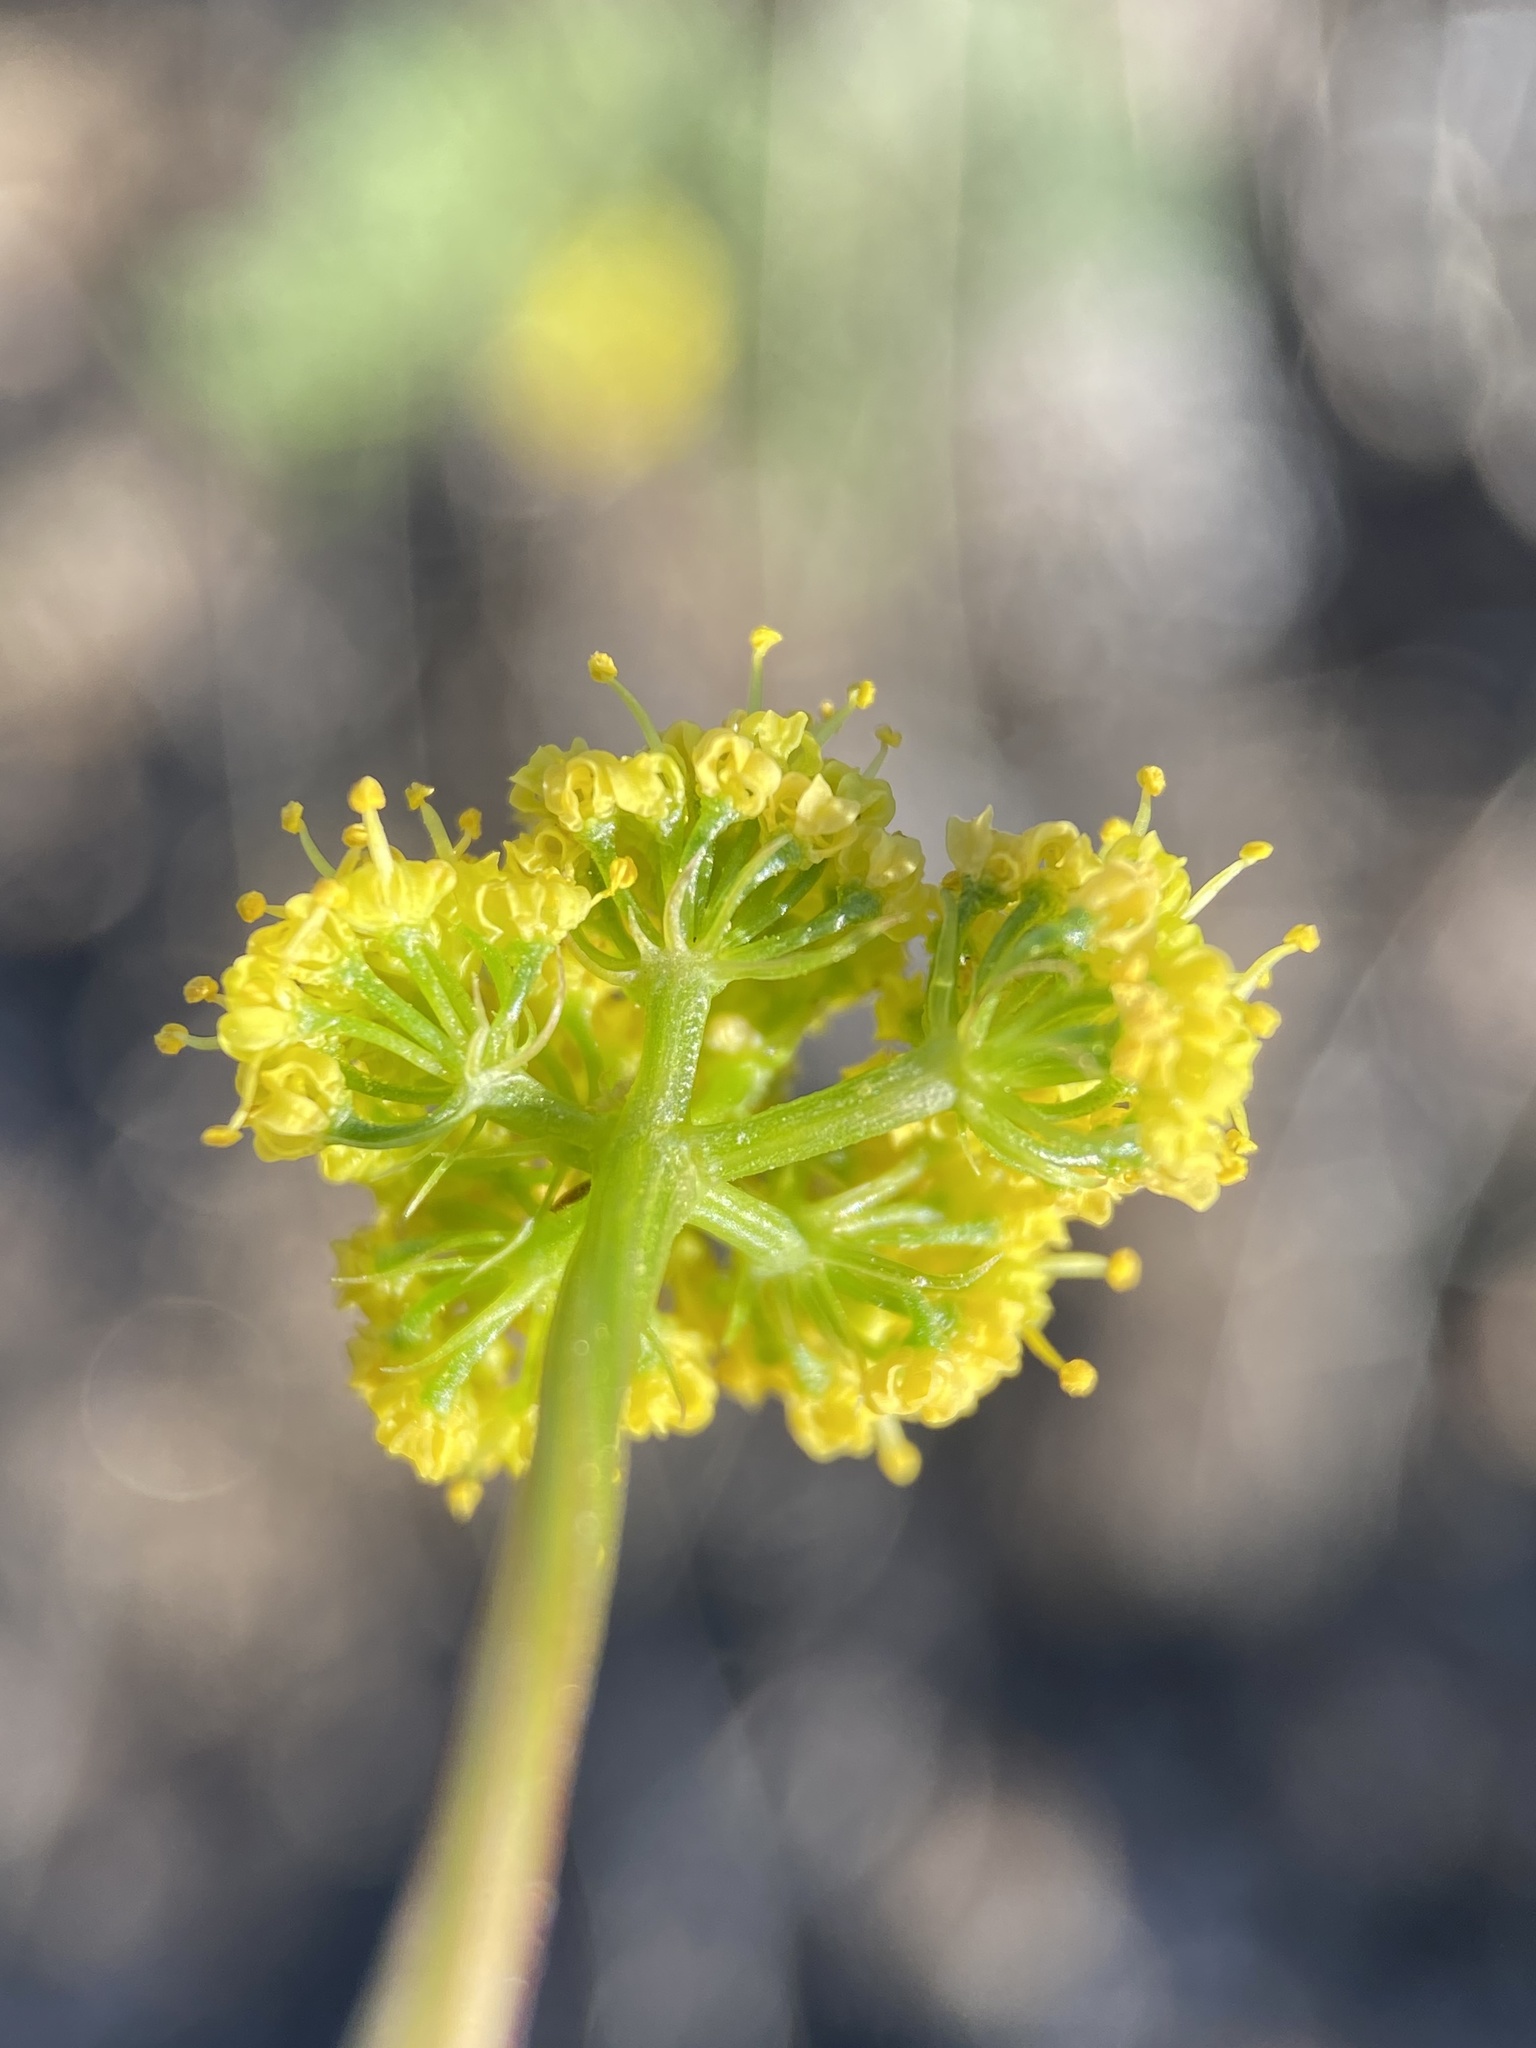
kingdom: Plantae
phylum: Tracheophyta
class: Magnoliopsida
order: Apiales
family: Apiaceae
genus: Lomatium
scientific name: Lomatium quintuplex
